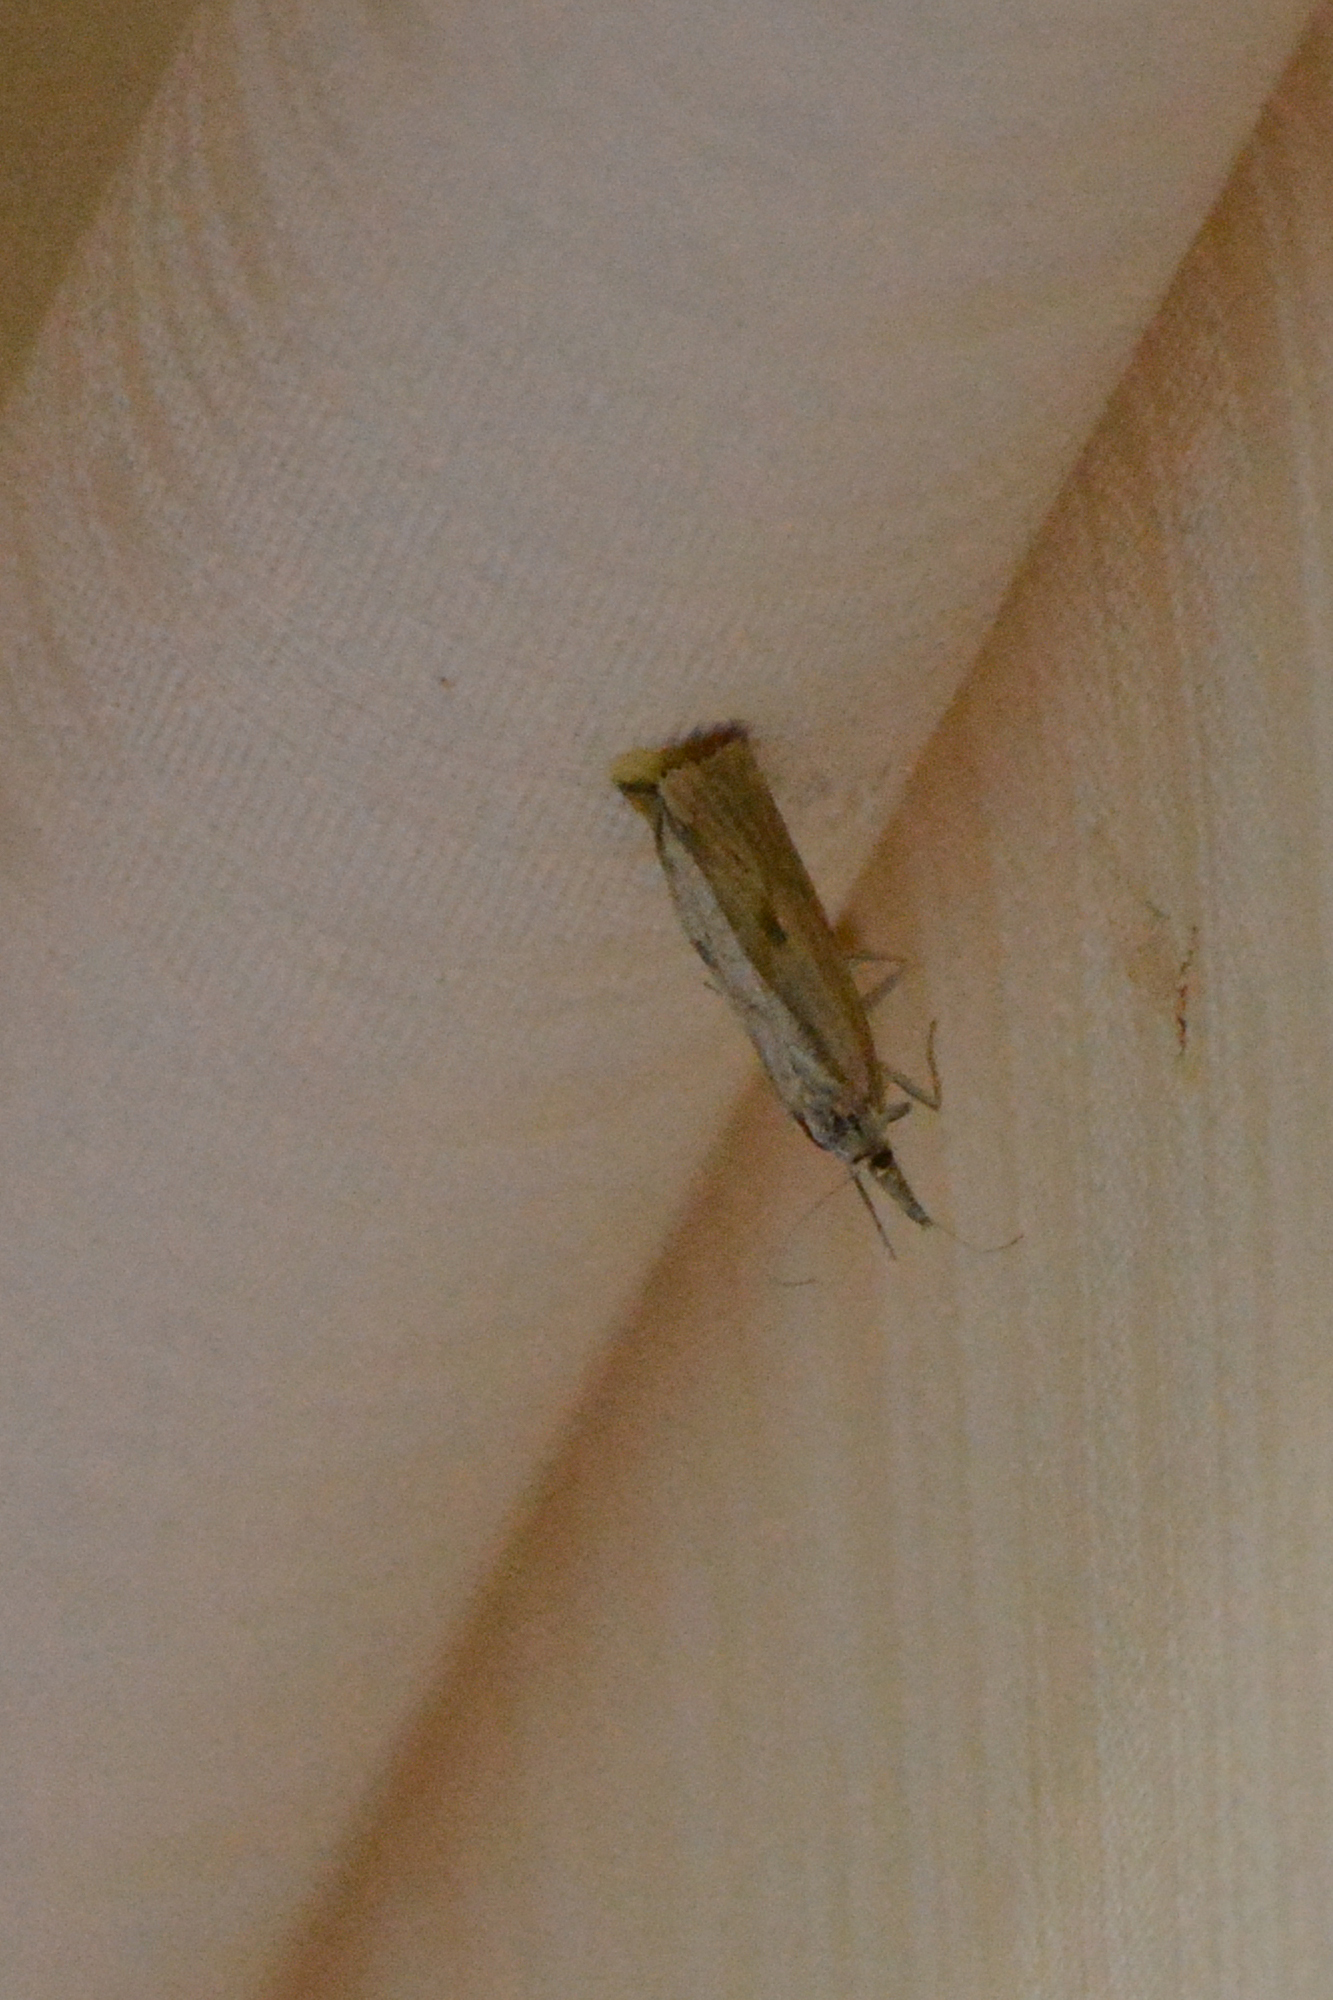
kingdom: Animalia
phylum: Arthropoda
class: Insecta
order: Lepidoptera
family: Crambidae
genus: Agriphila
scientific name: Agriphila inquinatella
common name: Barred grass-veneer
